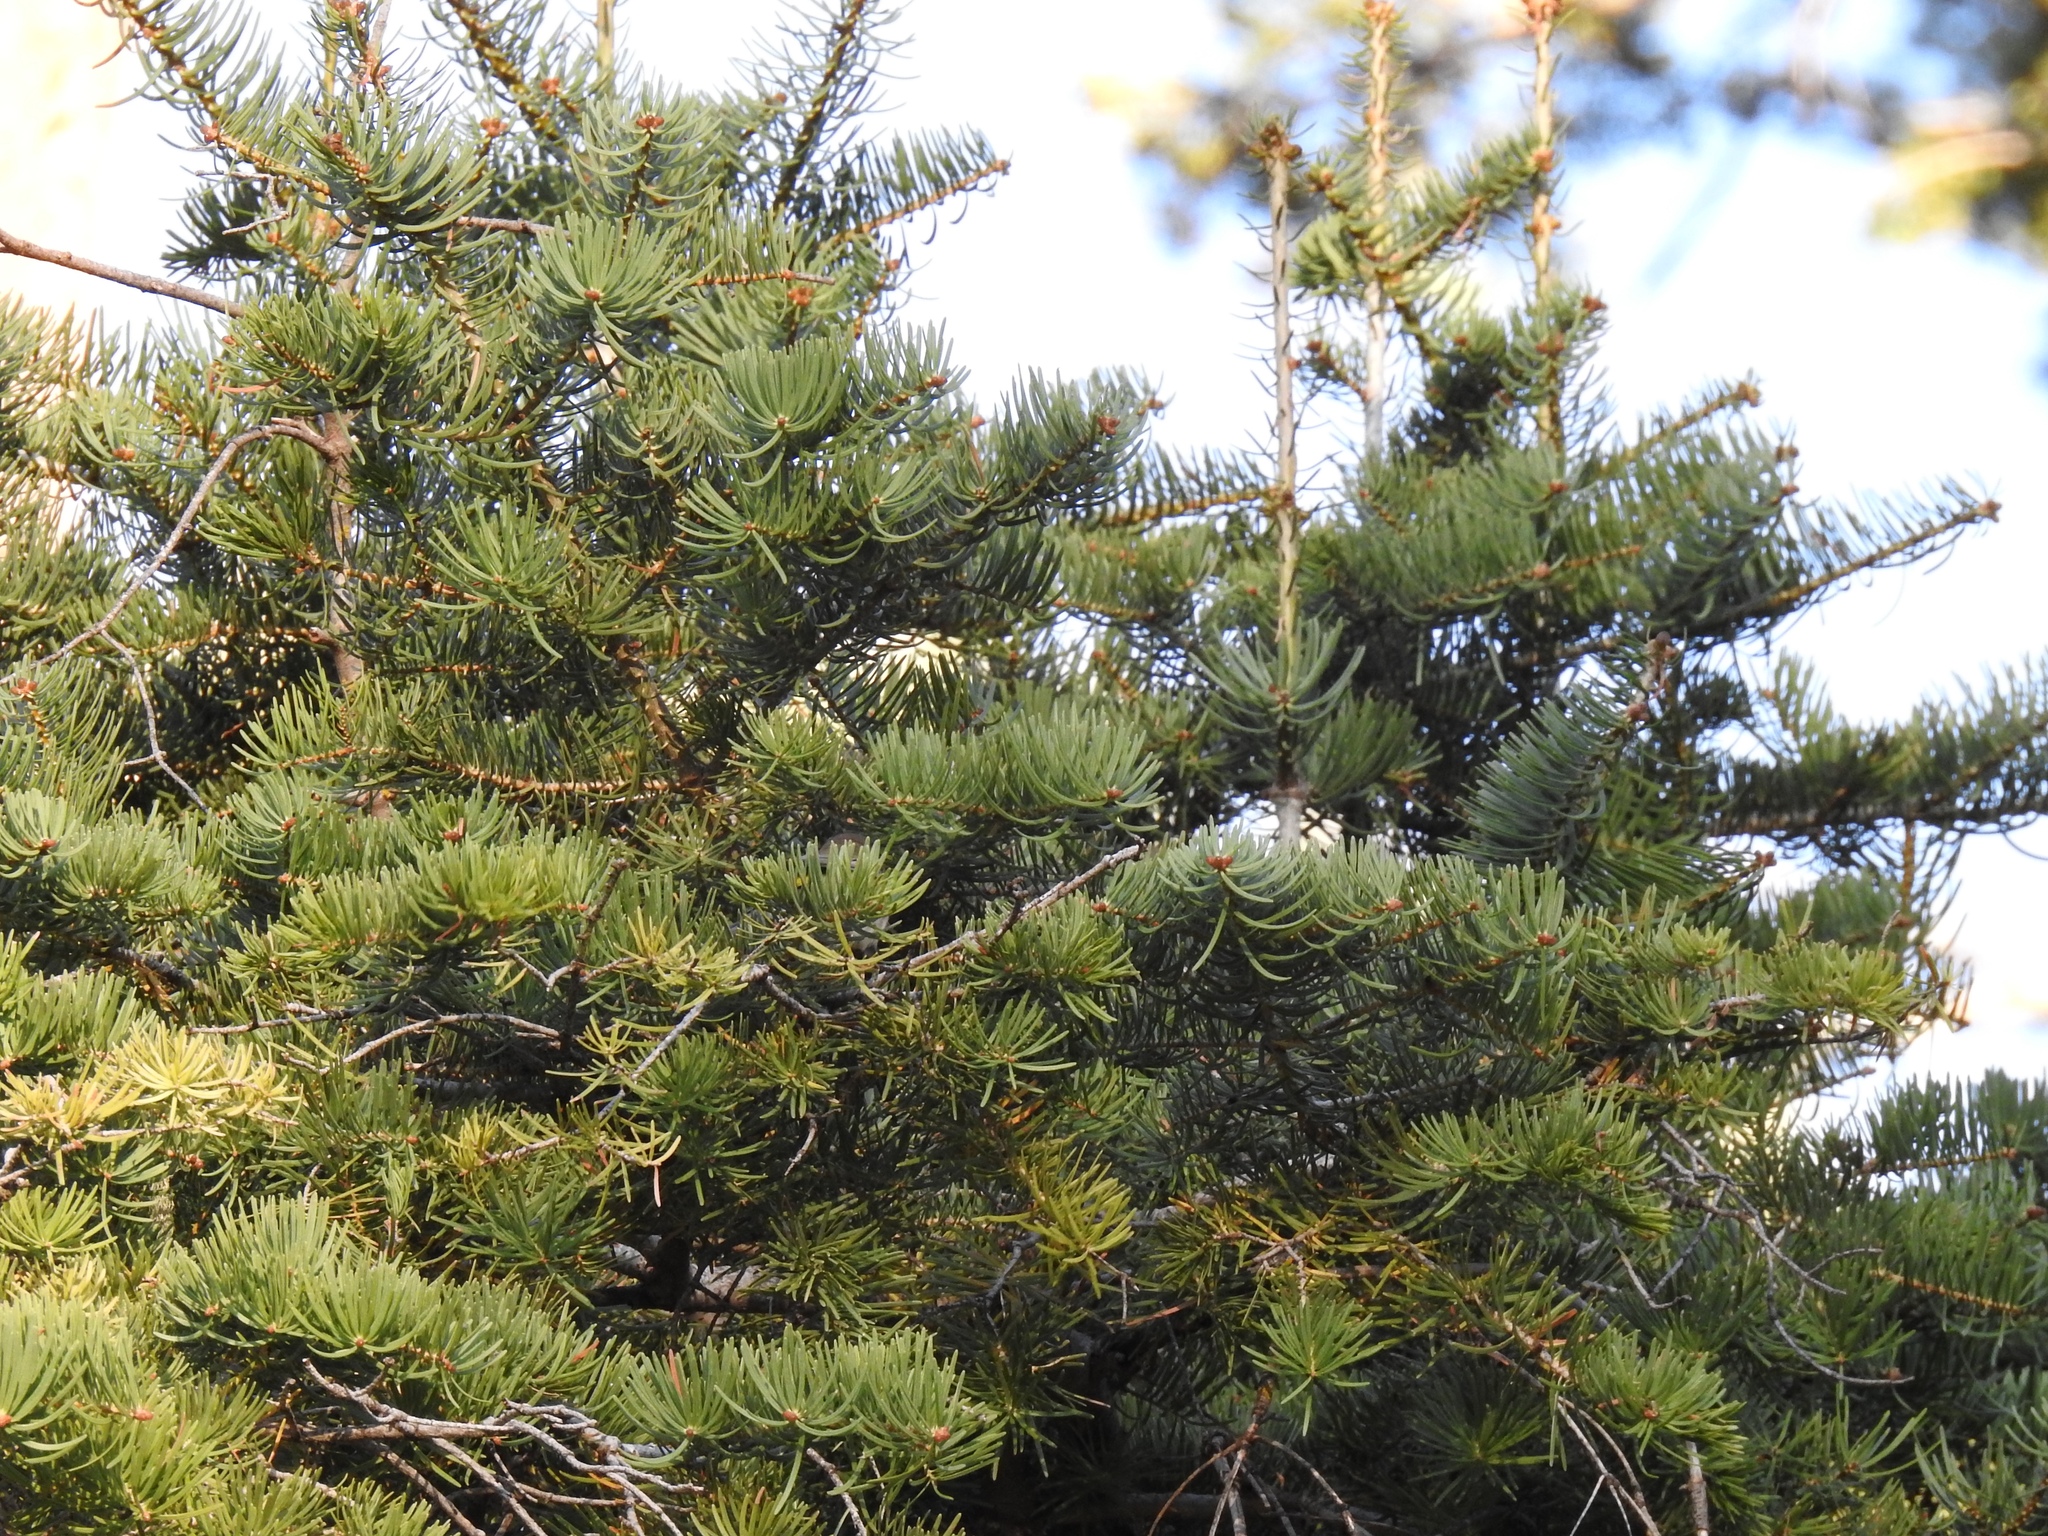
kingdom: Plantae
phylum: Tracheophyta
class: Pinopsida
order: Pinales
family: Pinaceae
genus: Abies
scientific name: Abies concolor
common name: Colorado fir
